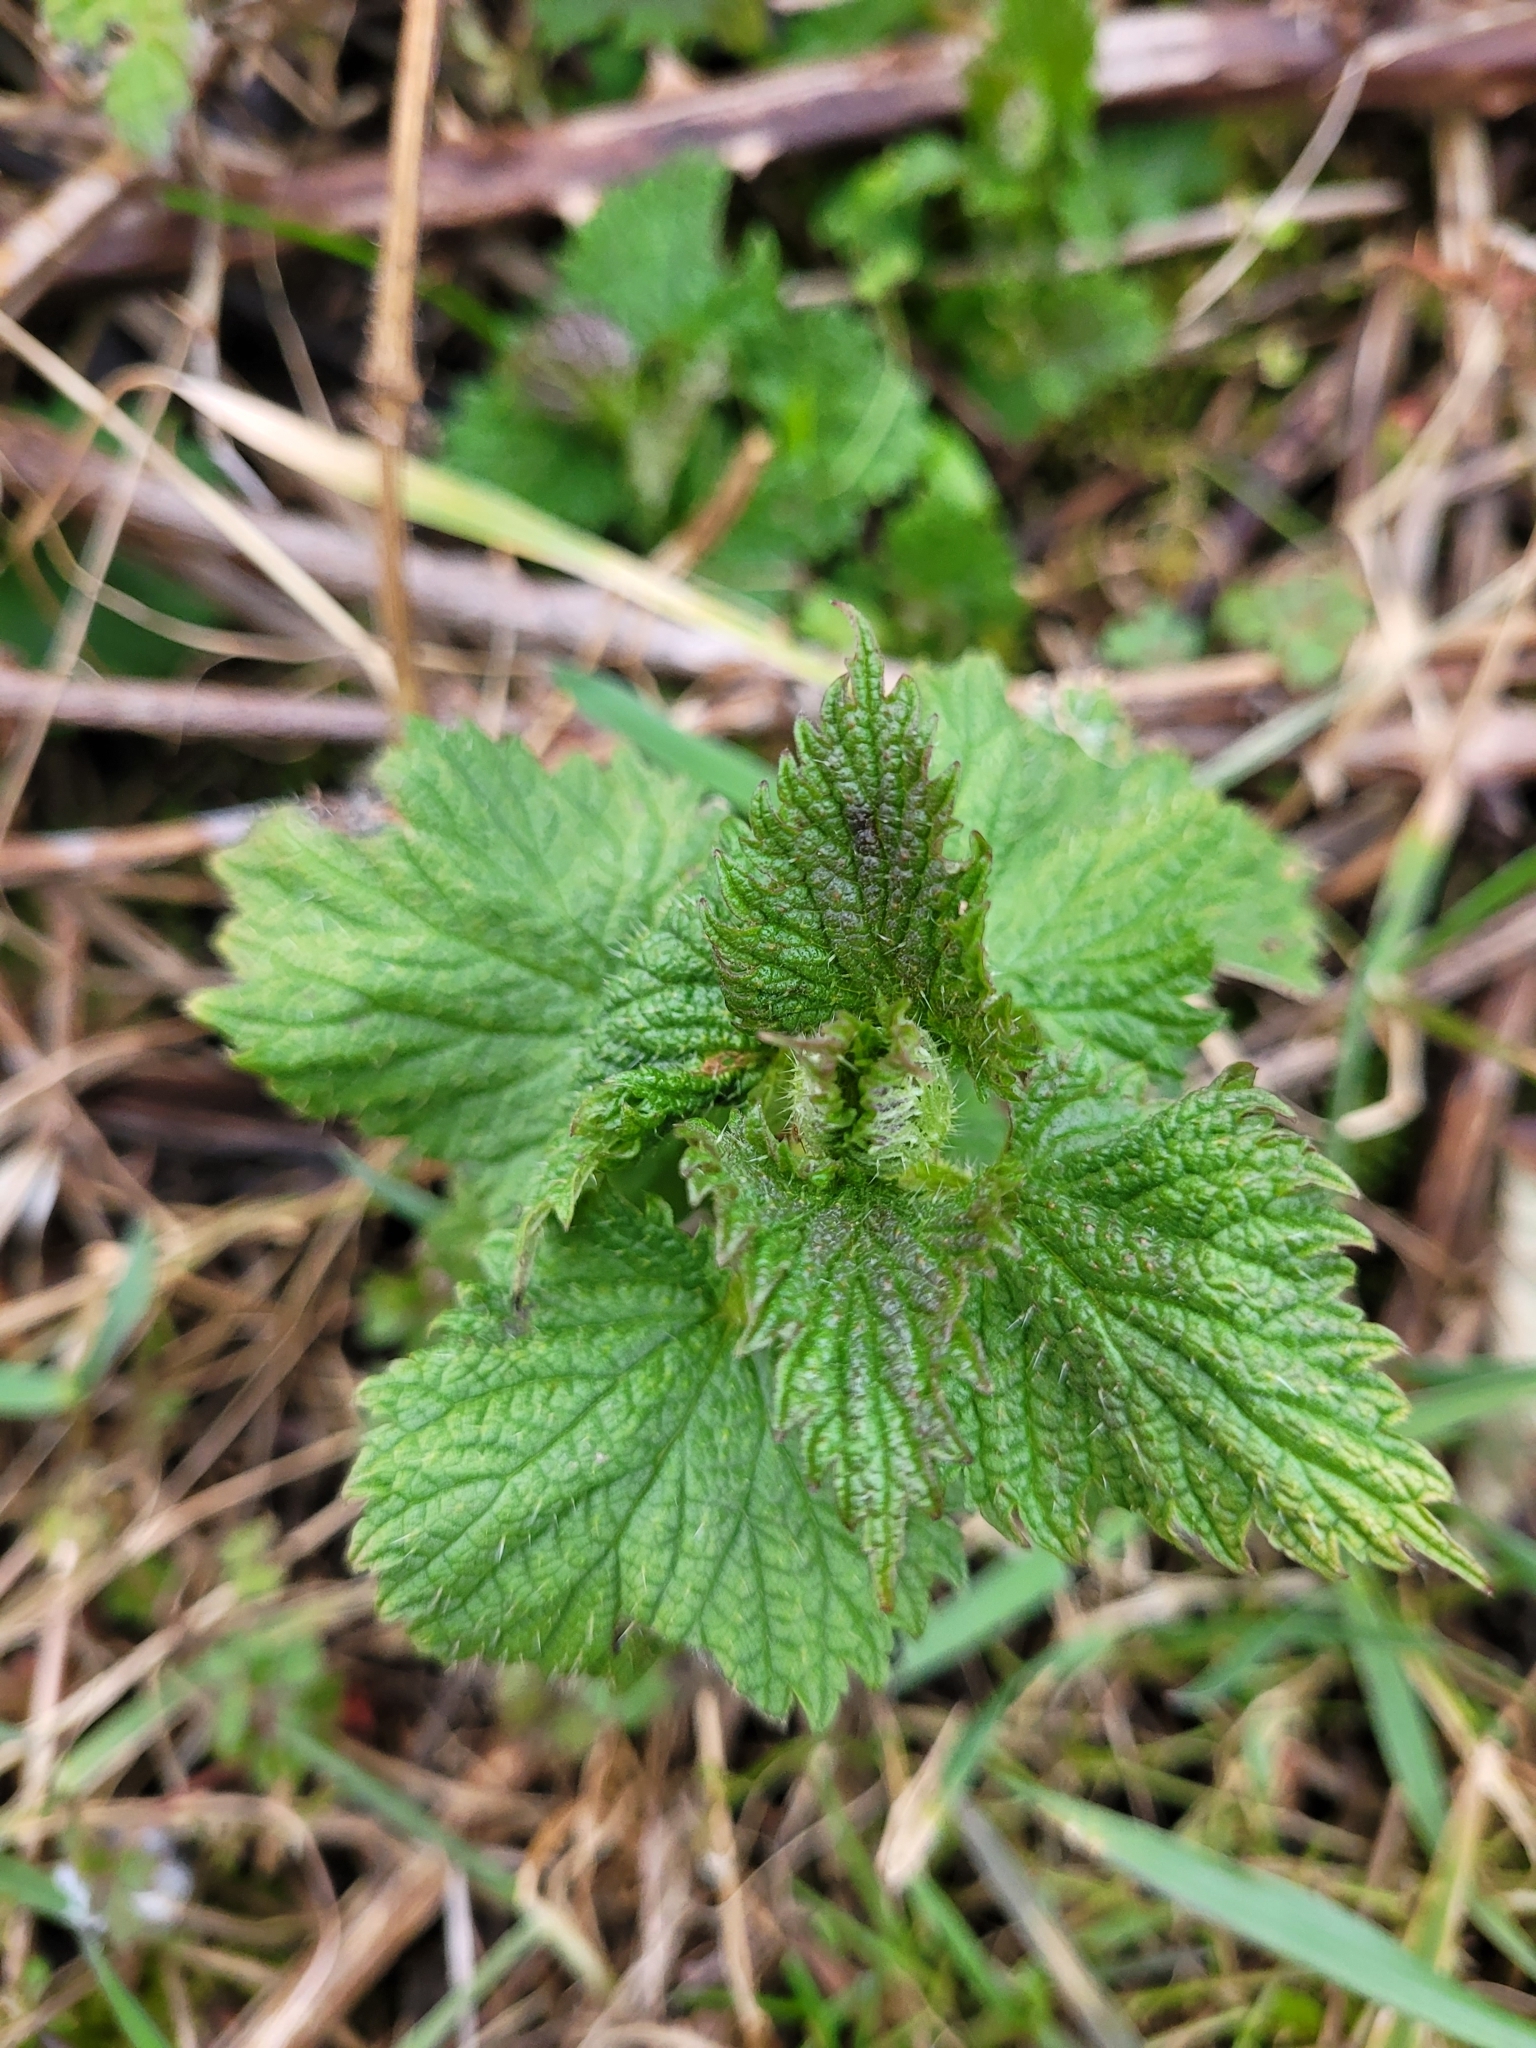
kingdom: Plantae
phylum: Tracheophyta
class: Magnoliopsida
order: Rosales
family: Urticaceae
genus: Urtica
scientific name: Urtica dioica
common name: Common nettle
